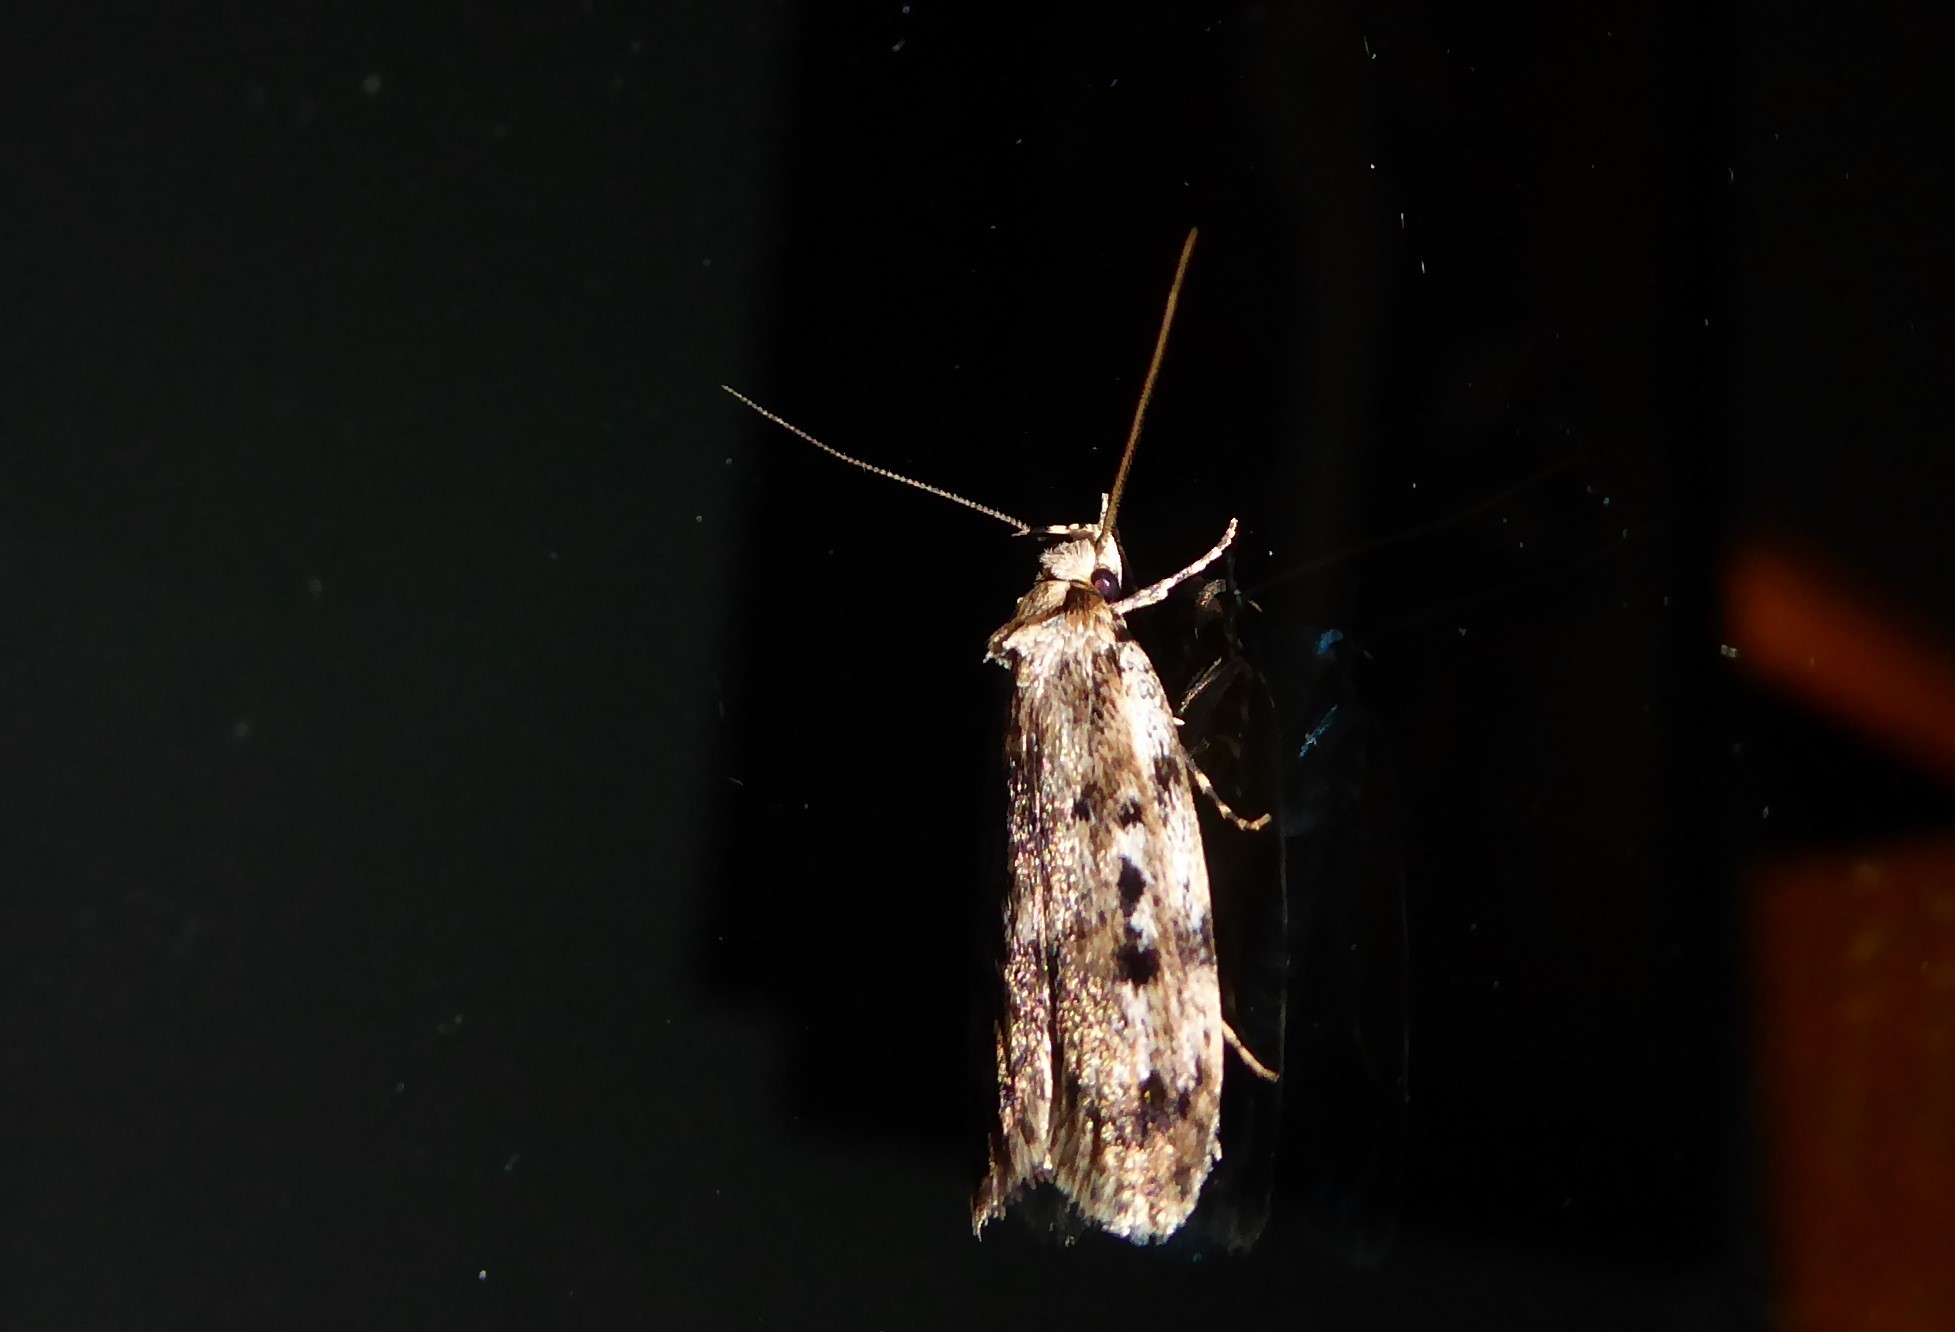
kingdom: Animalia
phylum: Arthropoda
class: Insecta
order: Lepidoptera
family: Oecophoridae
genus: Barea
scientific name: Barea exarcha
